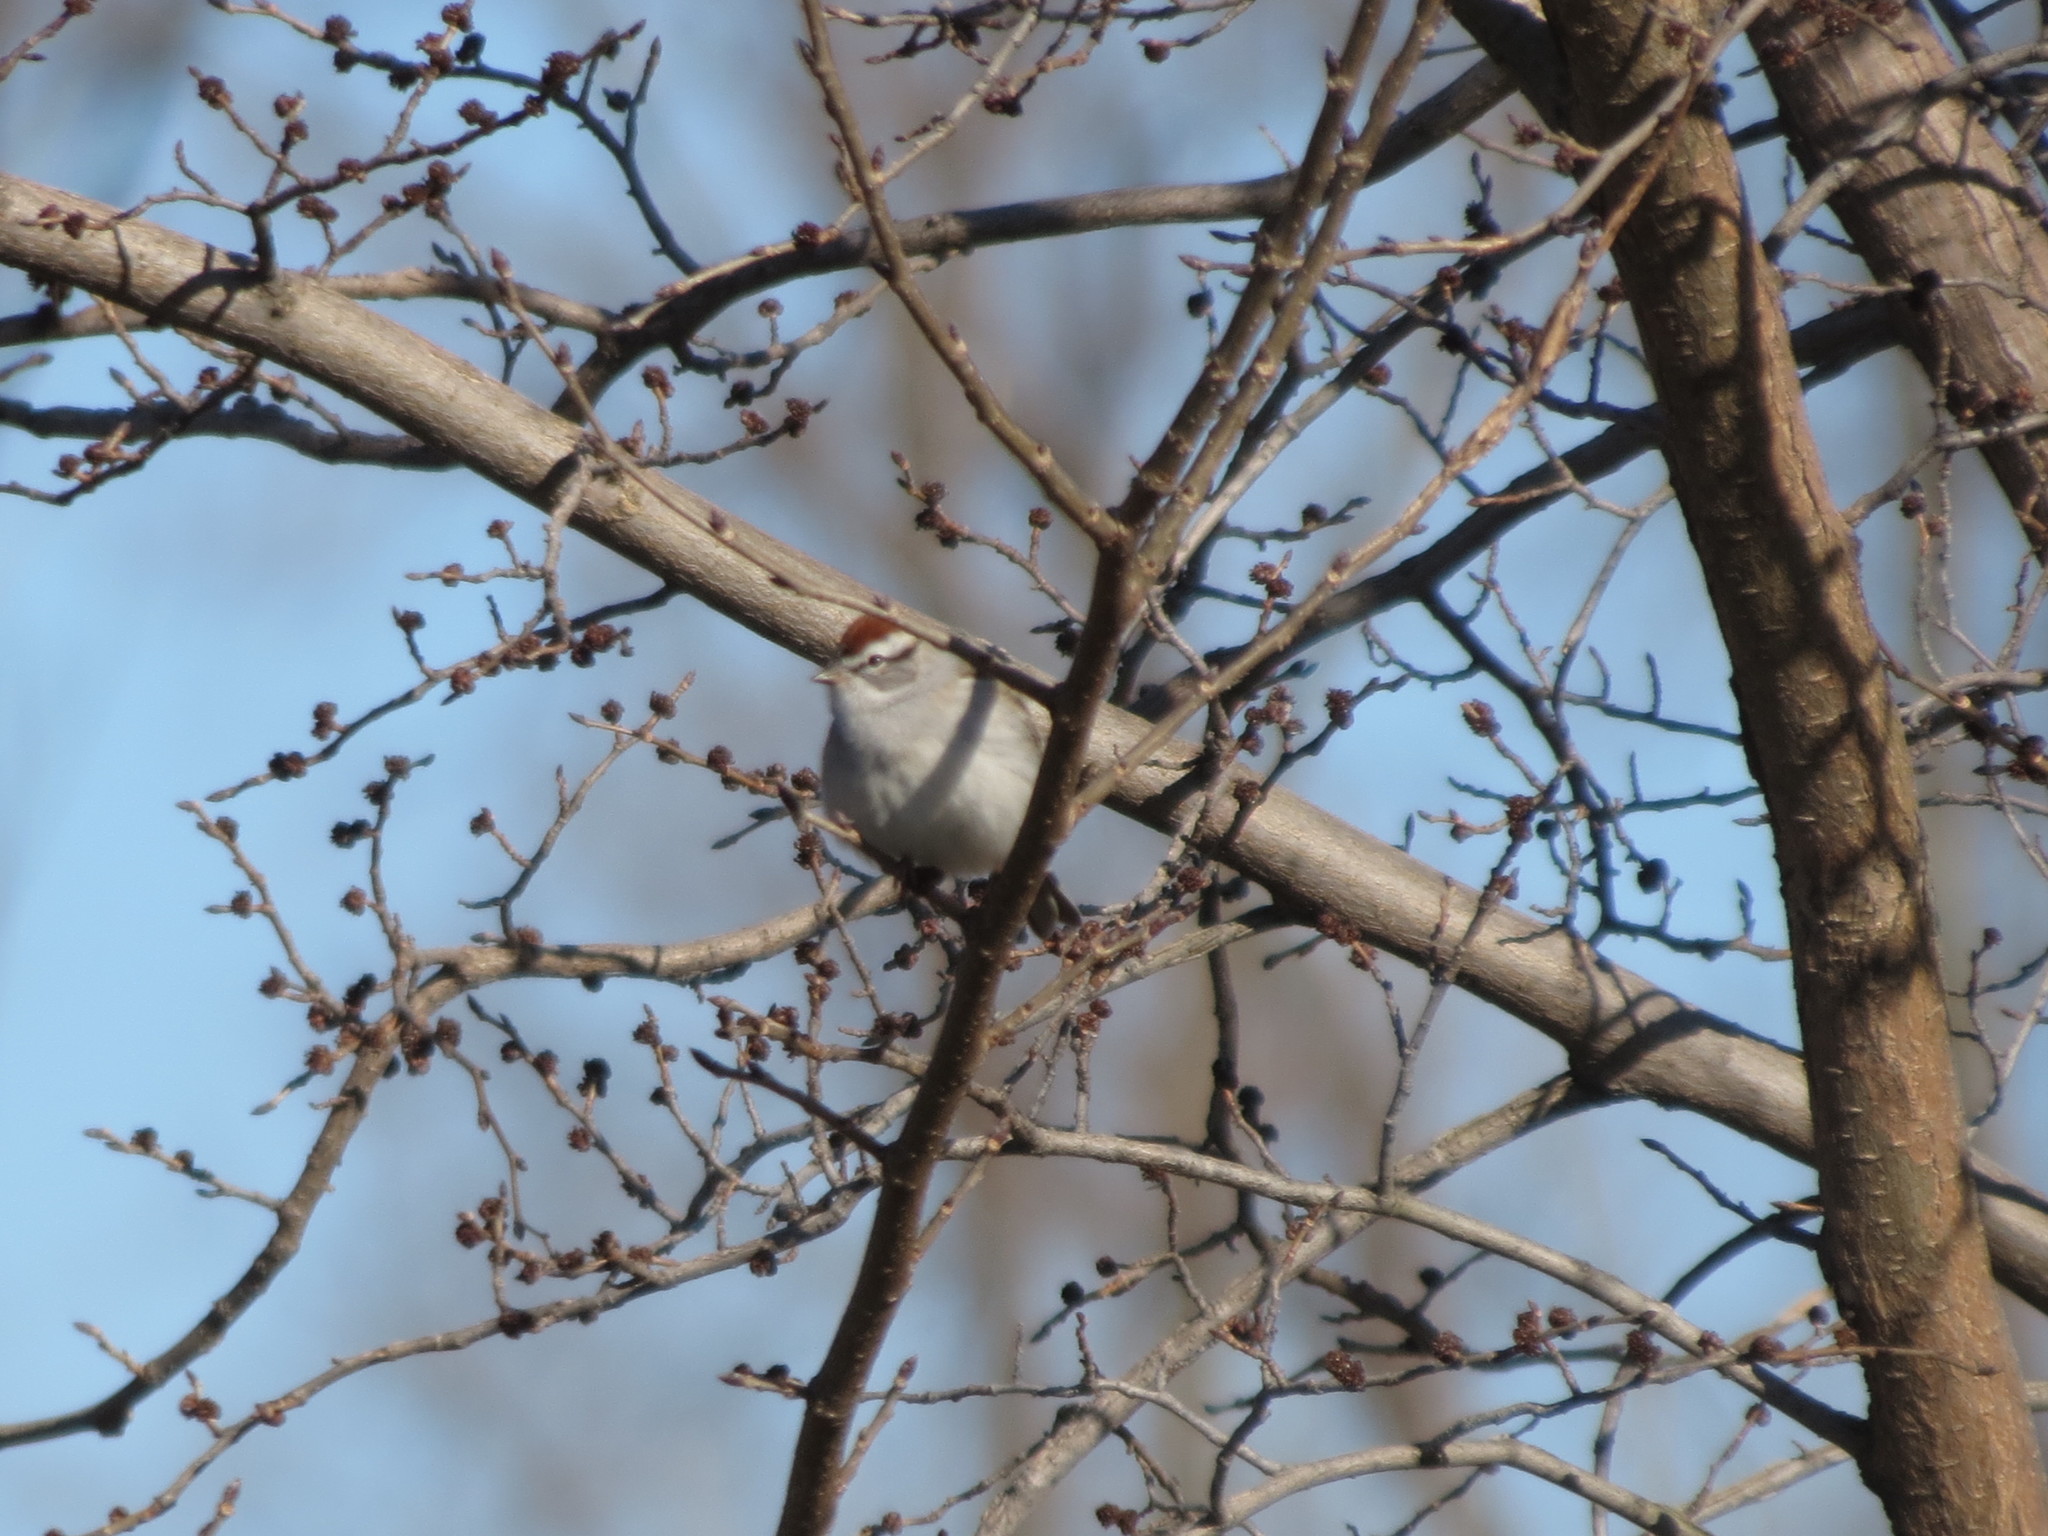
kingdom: Animalia
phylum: Chordata
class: Aves
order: Passeriformes
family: Passerellidae
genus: Spizella
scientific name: Spizella passerina
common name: Chipping sparrow
